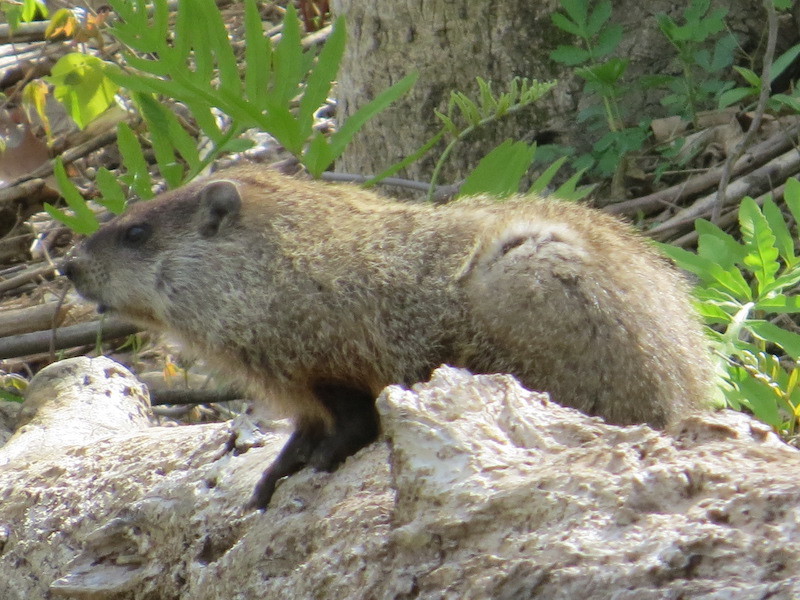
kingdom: Animalia
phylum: Chordata
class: Mammalia
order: Rodentia
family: Sciuridae
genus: Marmota
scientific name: Marmota monax
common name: Groundhog
